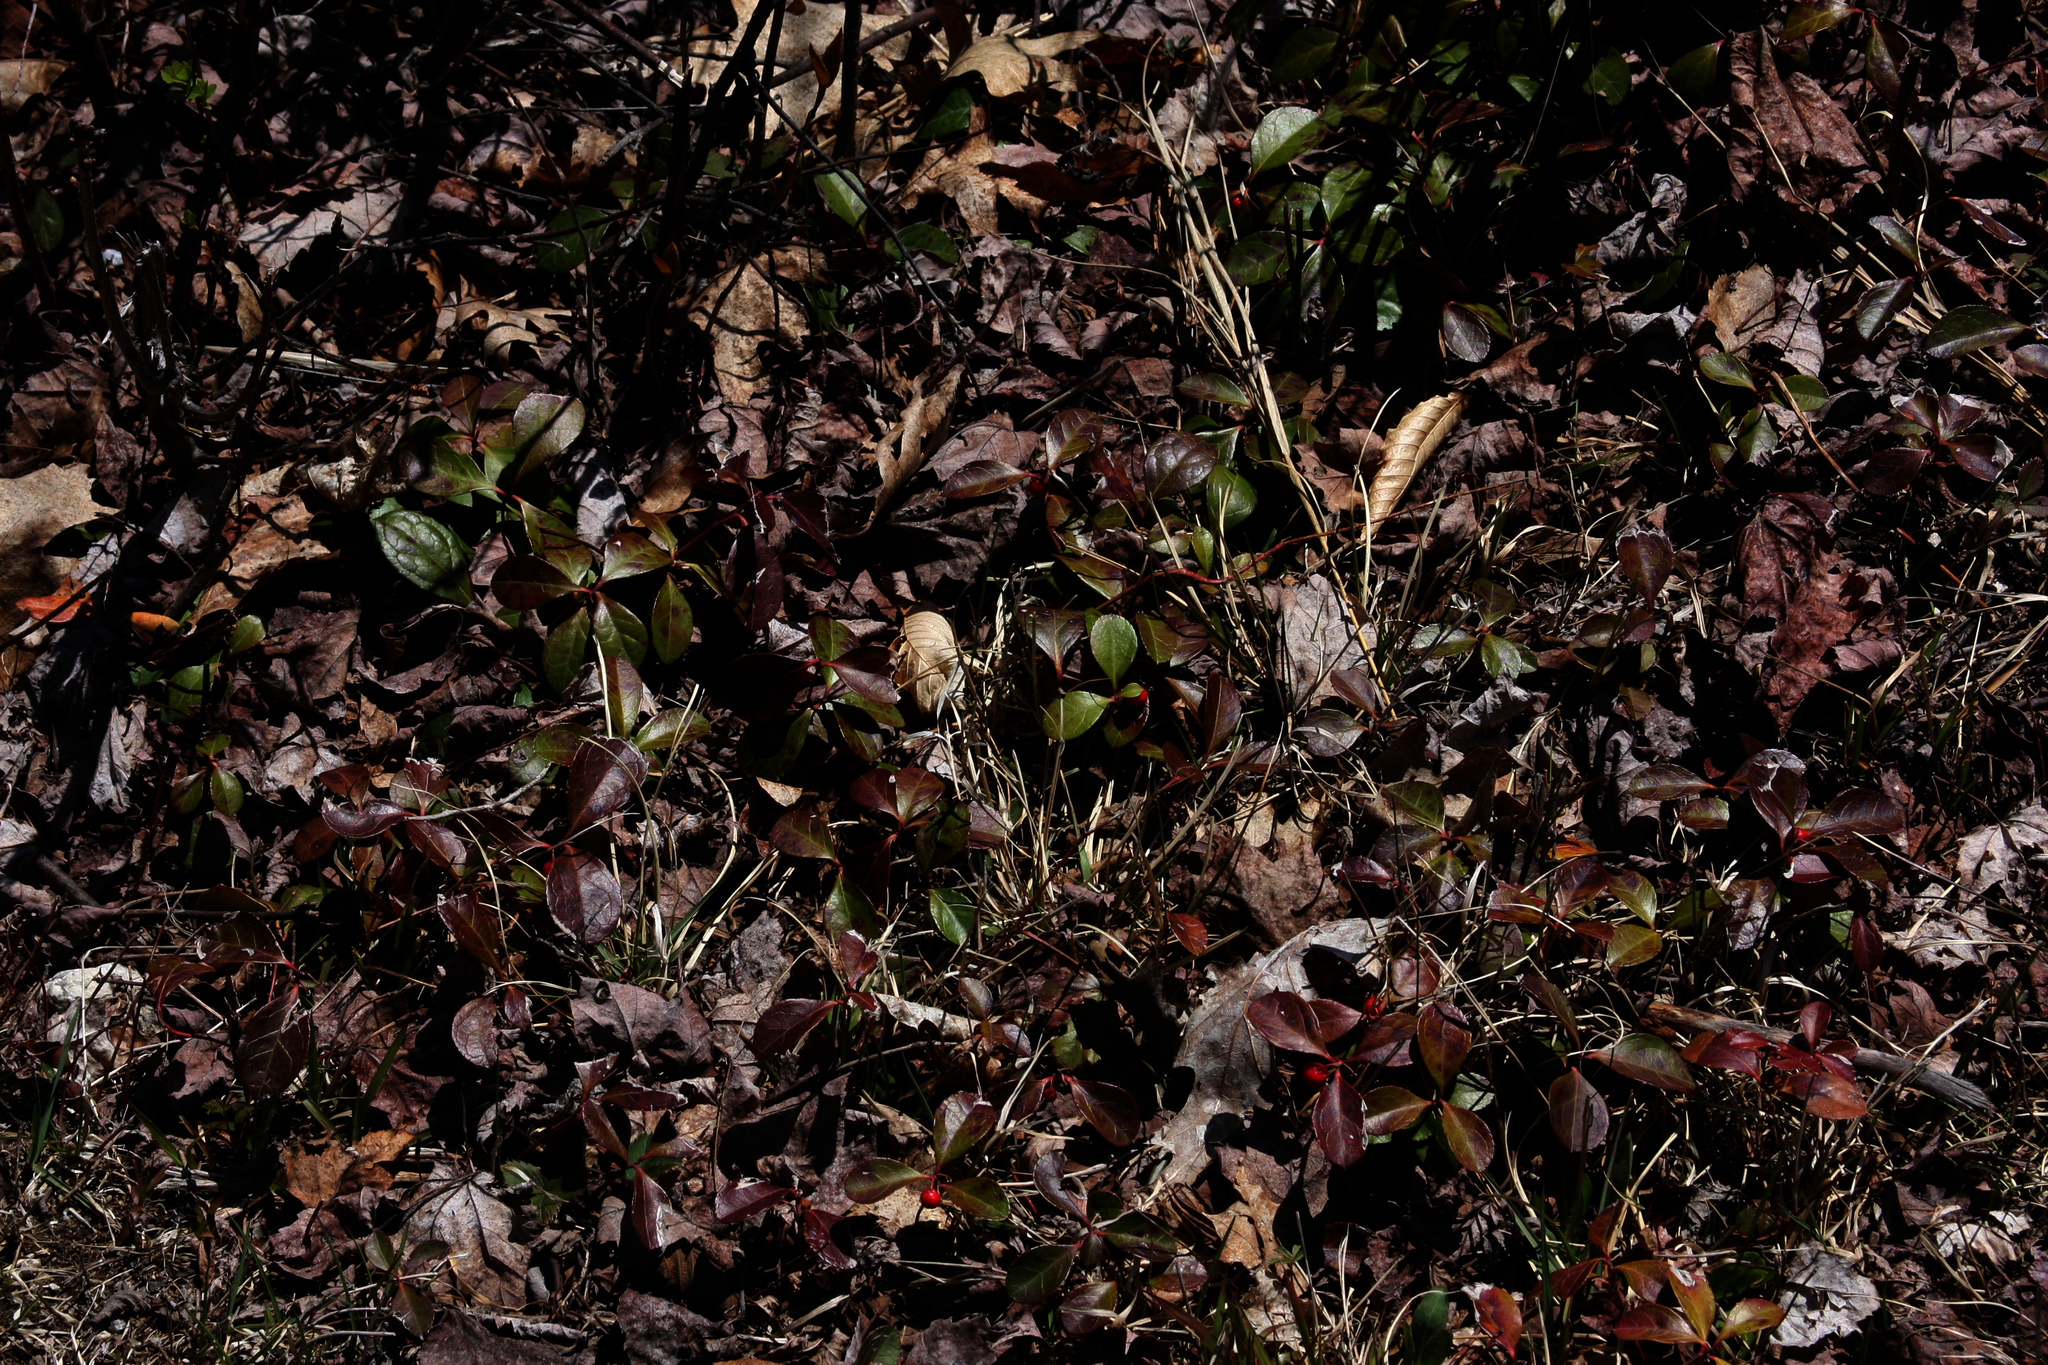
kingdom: Plantae
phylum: Tracheophyta
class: Magnoliopsida
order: Ericales
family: Ericaceae
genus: Gaultheria
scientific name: Gaultheria procumbens
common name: Checkerberry
